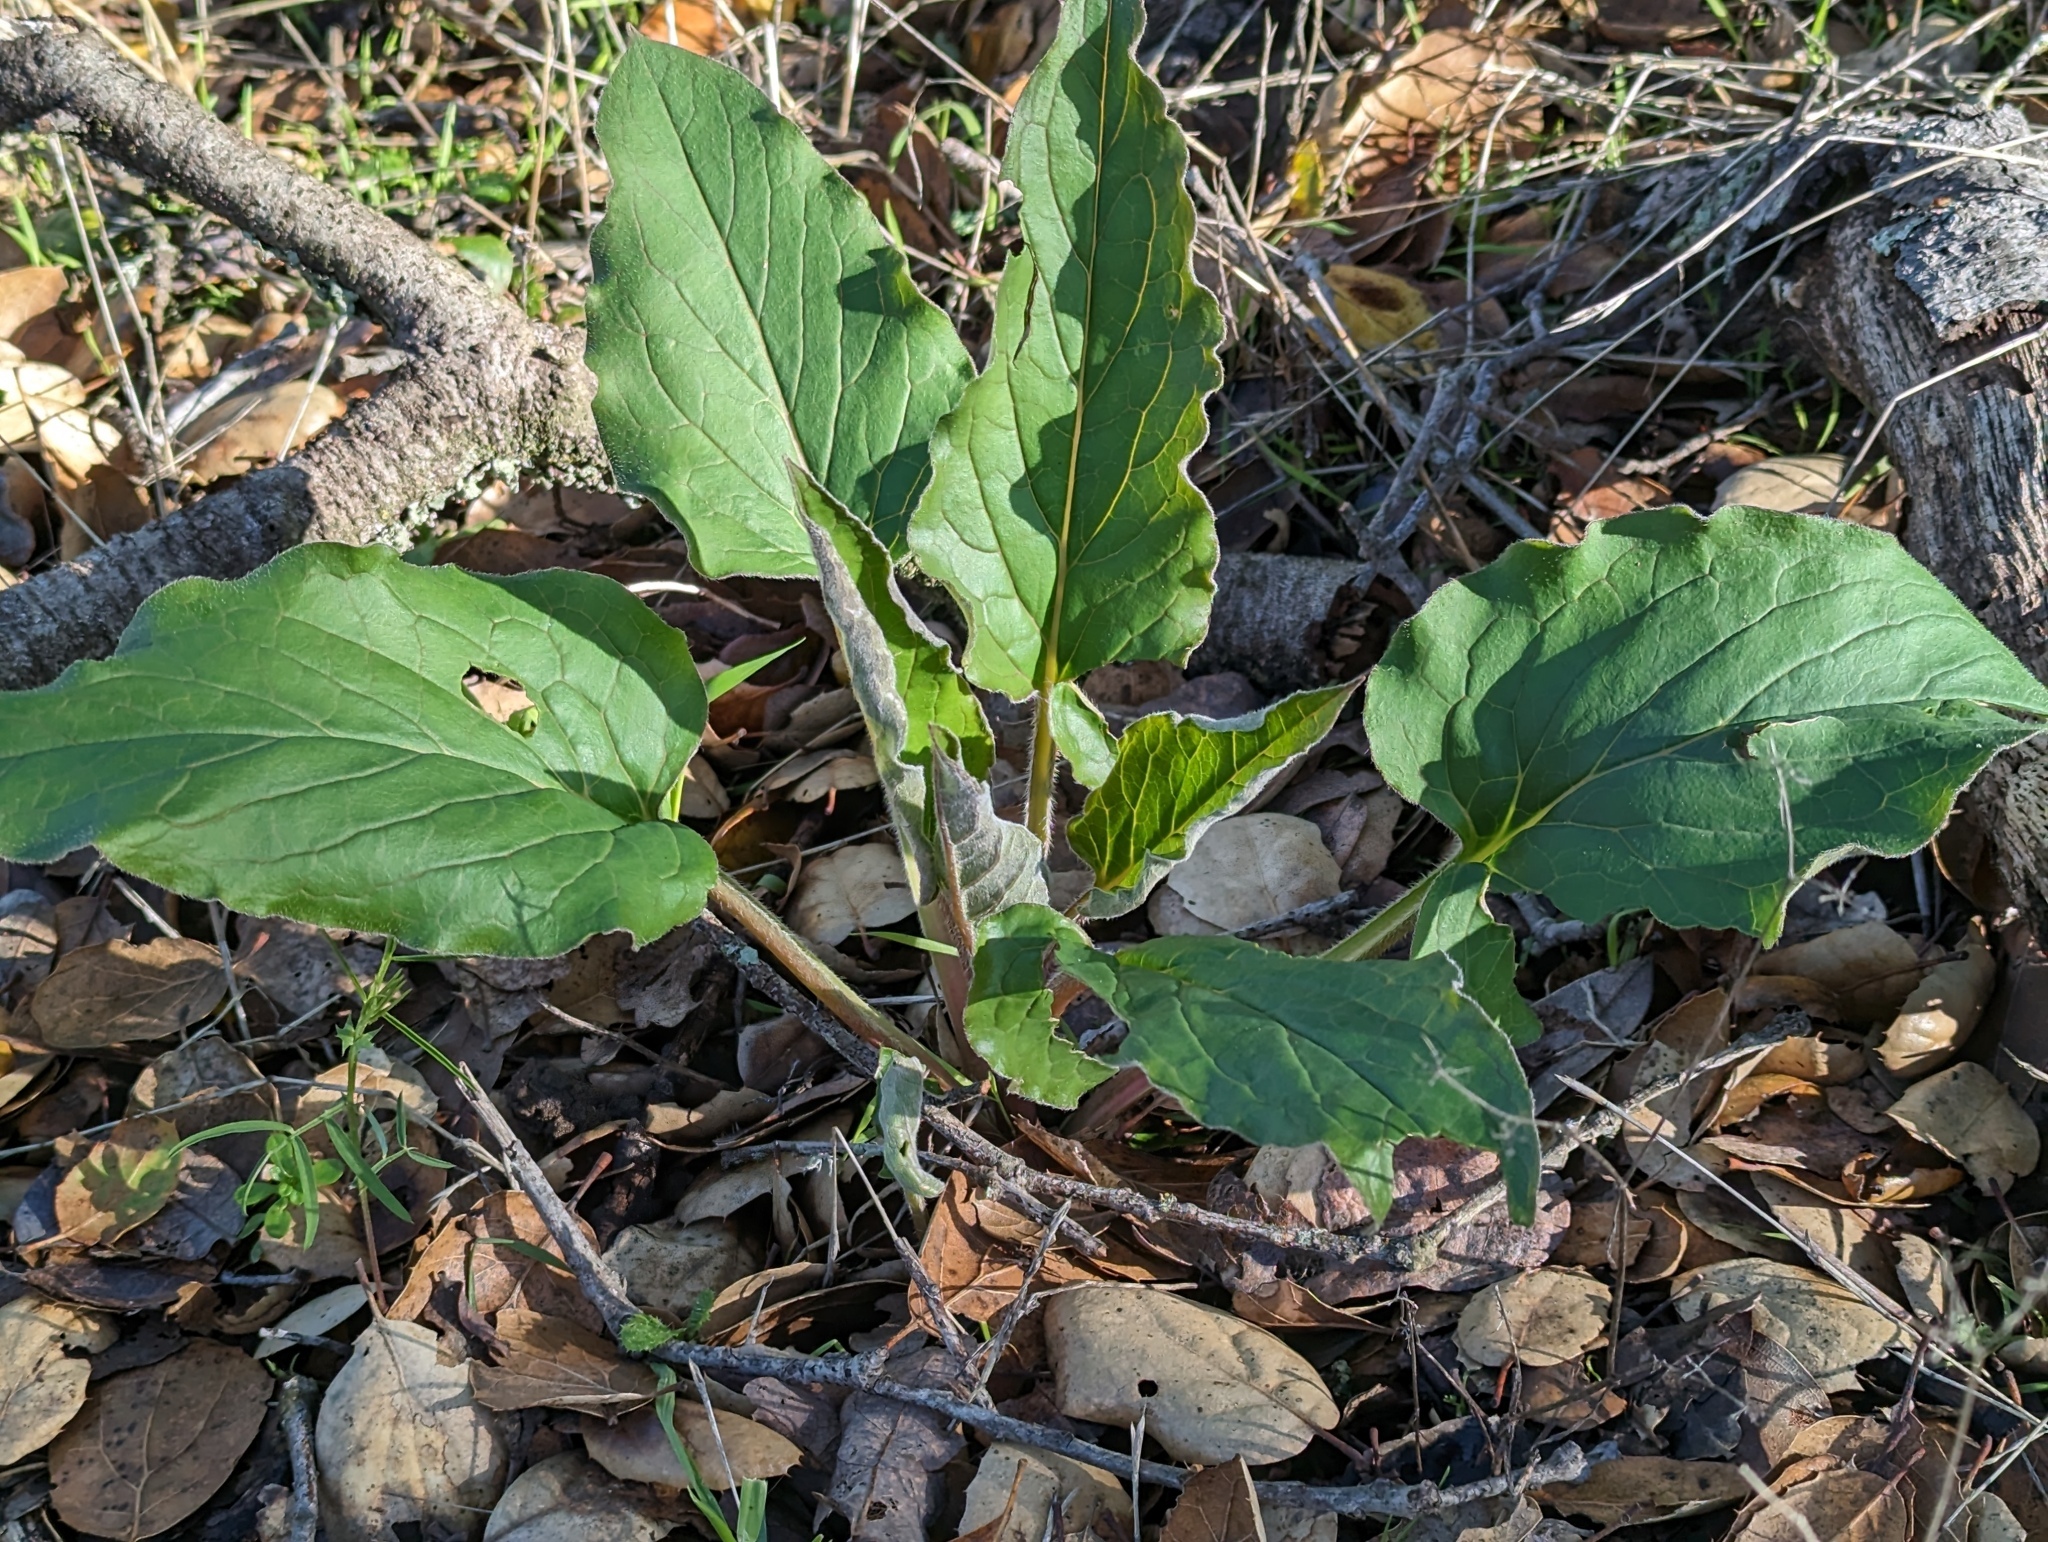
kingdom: Plantae
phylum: Tracheophyta
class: Magnoliopsida
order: Boraginales
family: Boraginaceae
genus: Adelinia
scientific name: Adelinia grande
